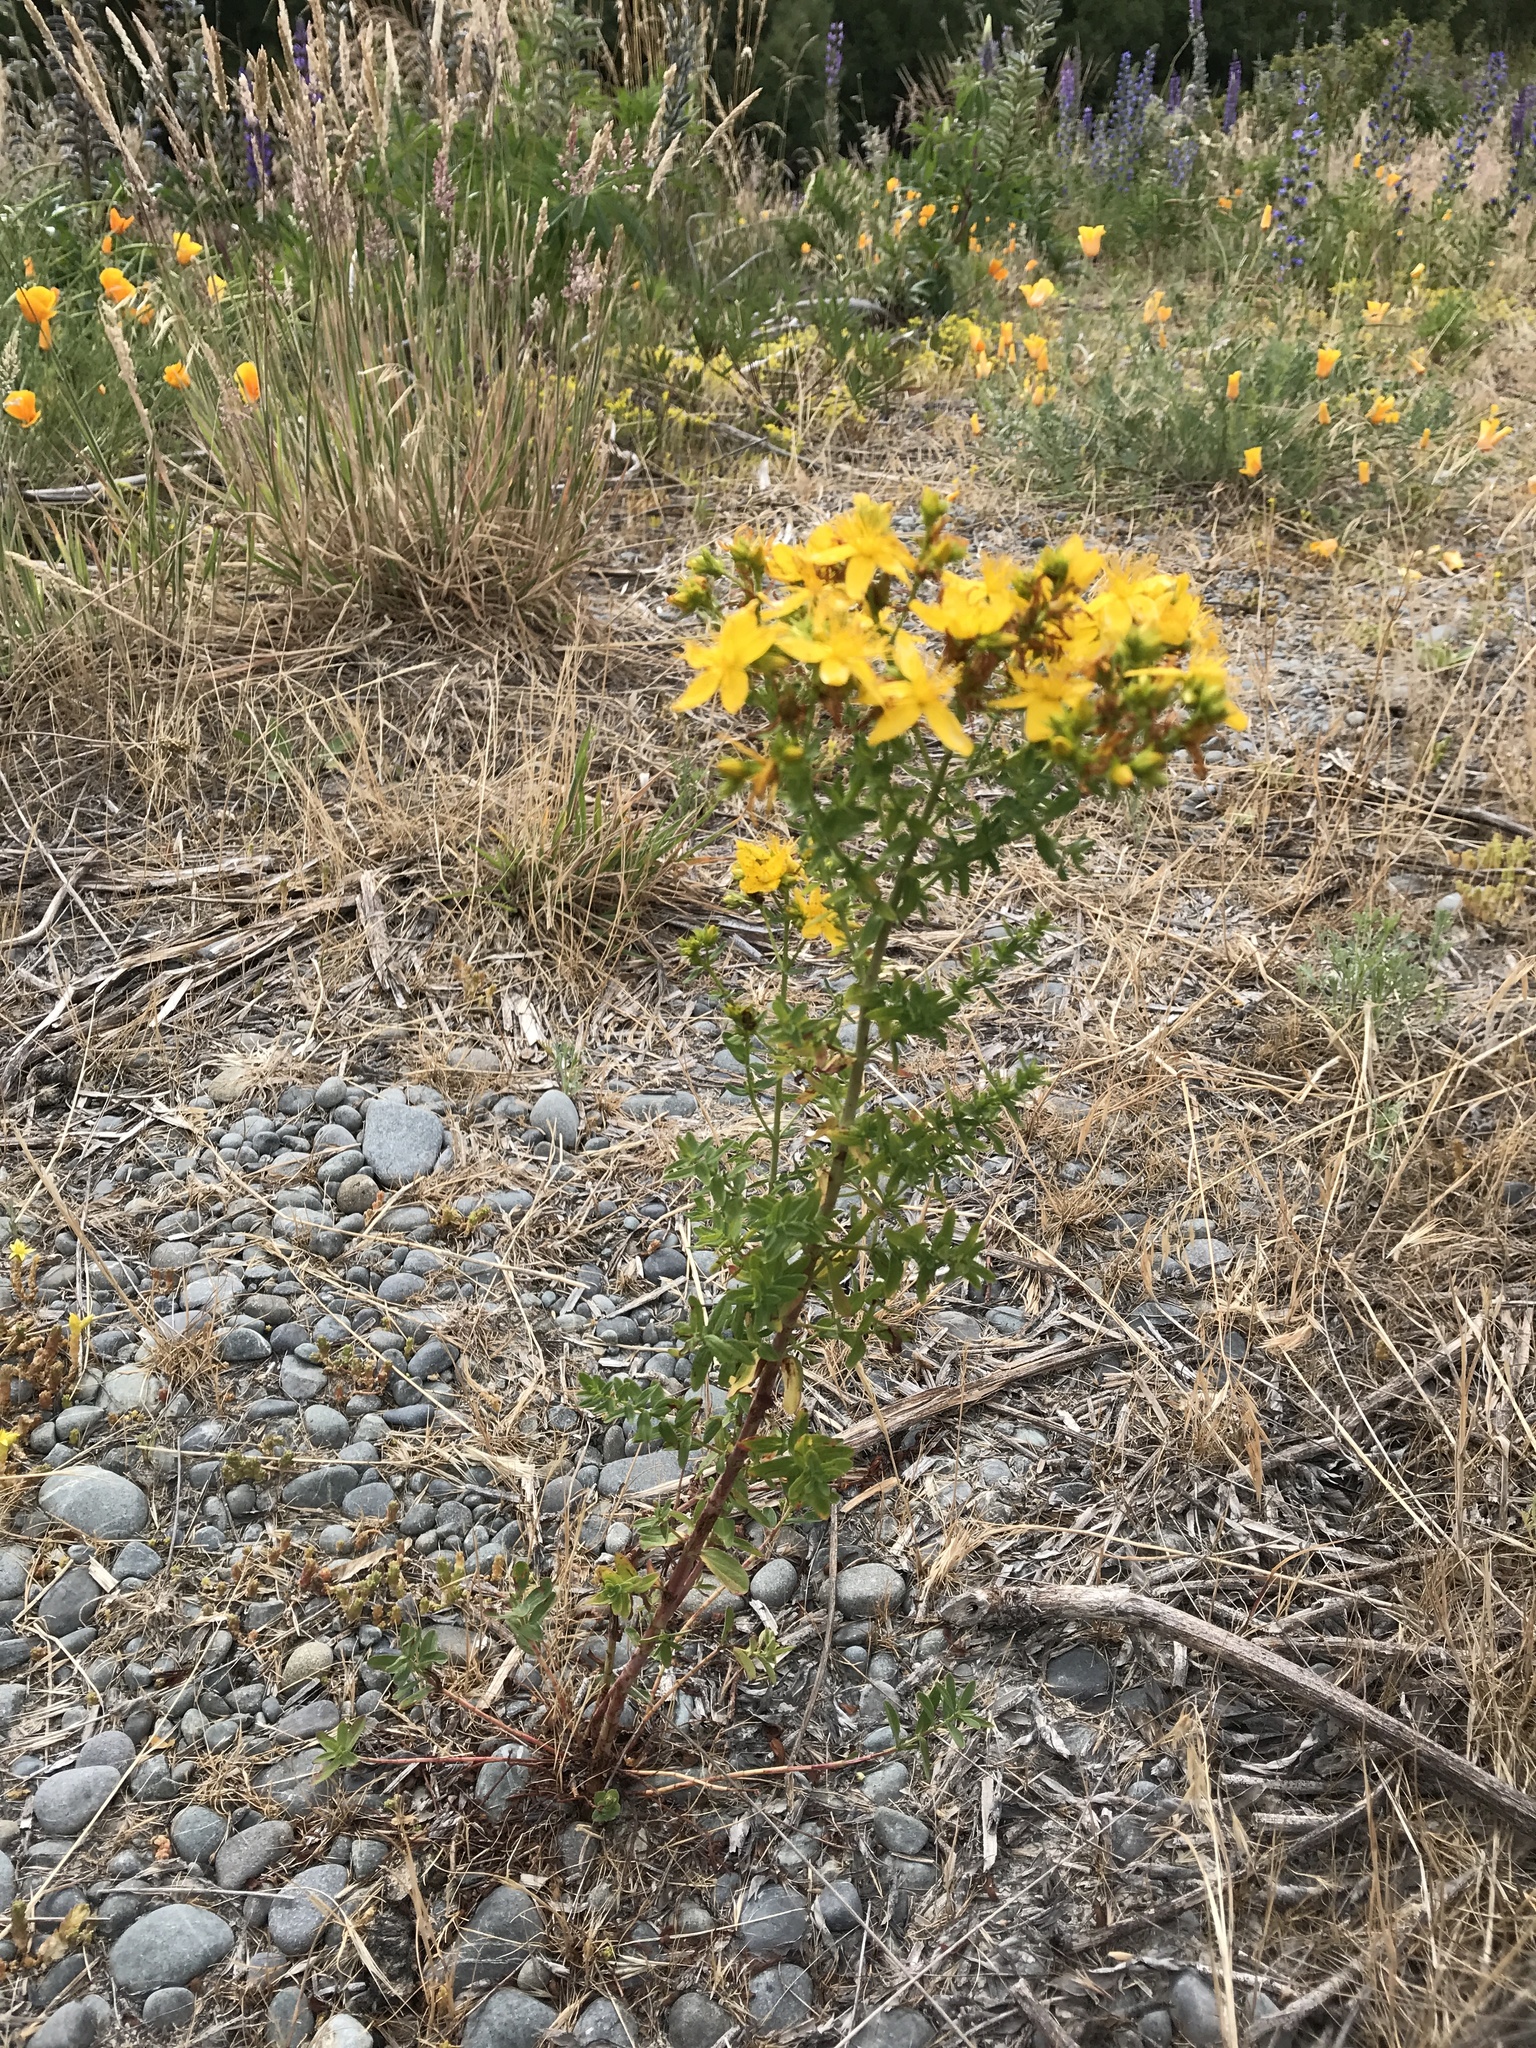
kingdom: Plantae
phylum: Tracheophyta
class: Magnoliopsida
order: Malpighiales
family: Hypericaceae
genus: Hypericum
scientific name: Hypericum perforatum
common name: Common st. johnswort
